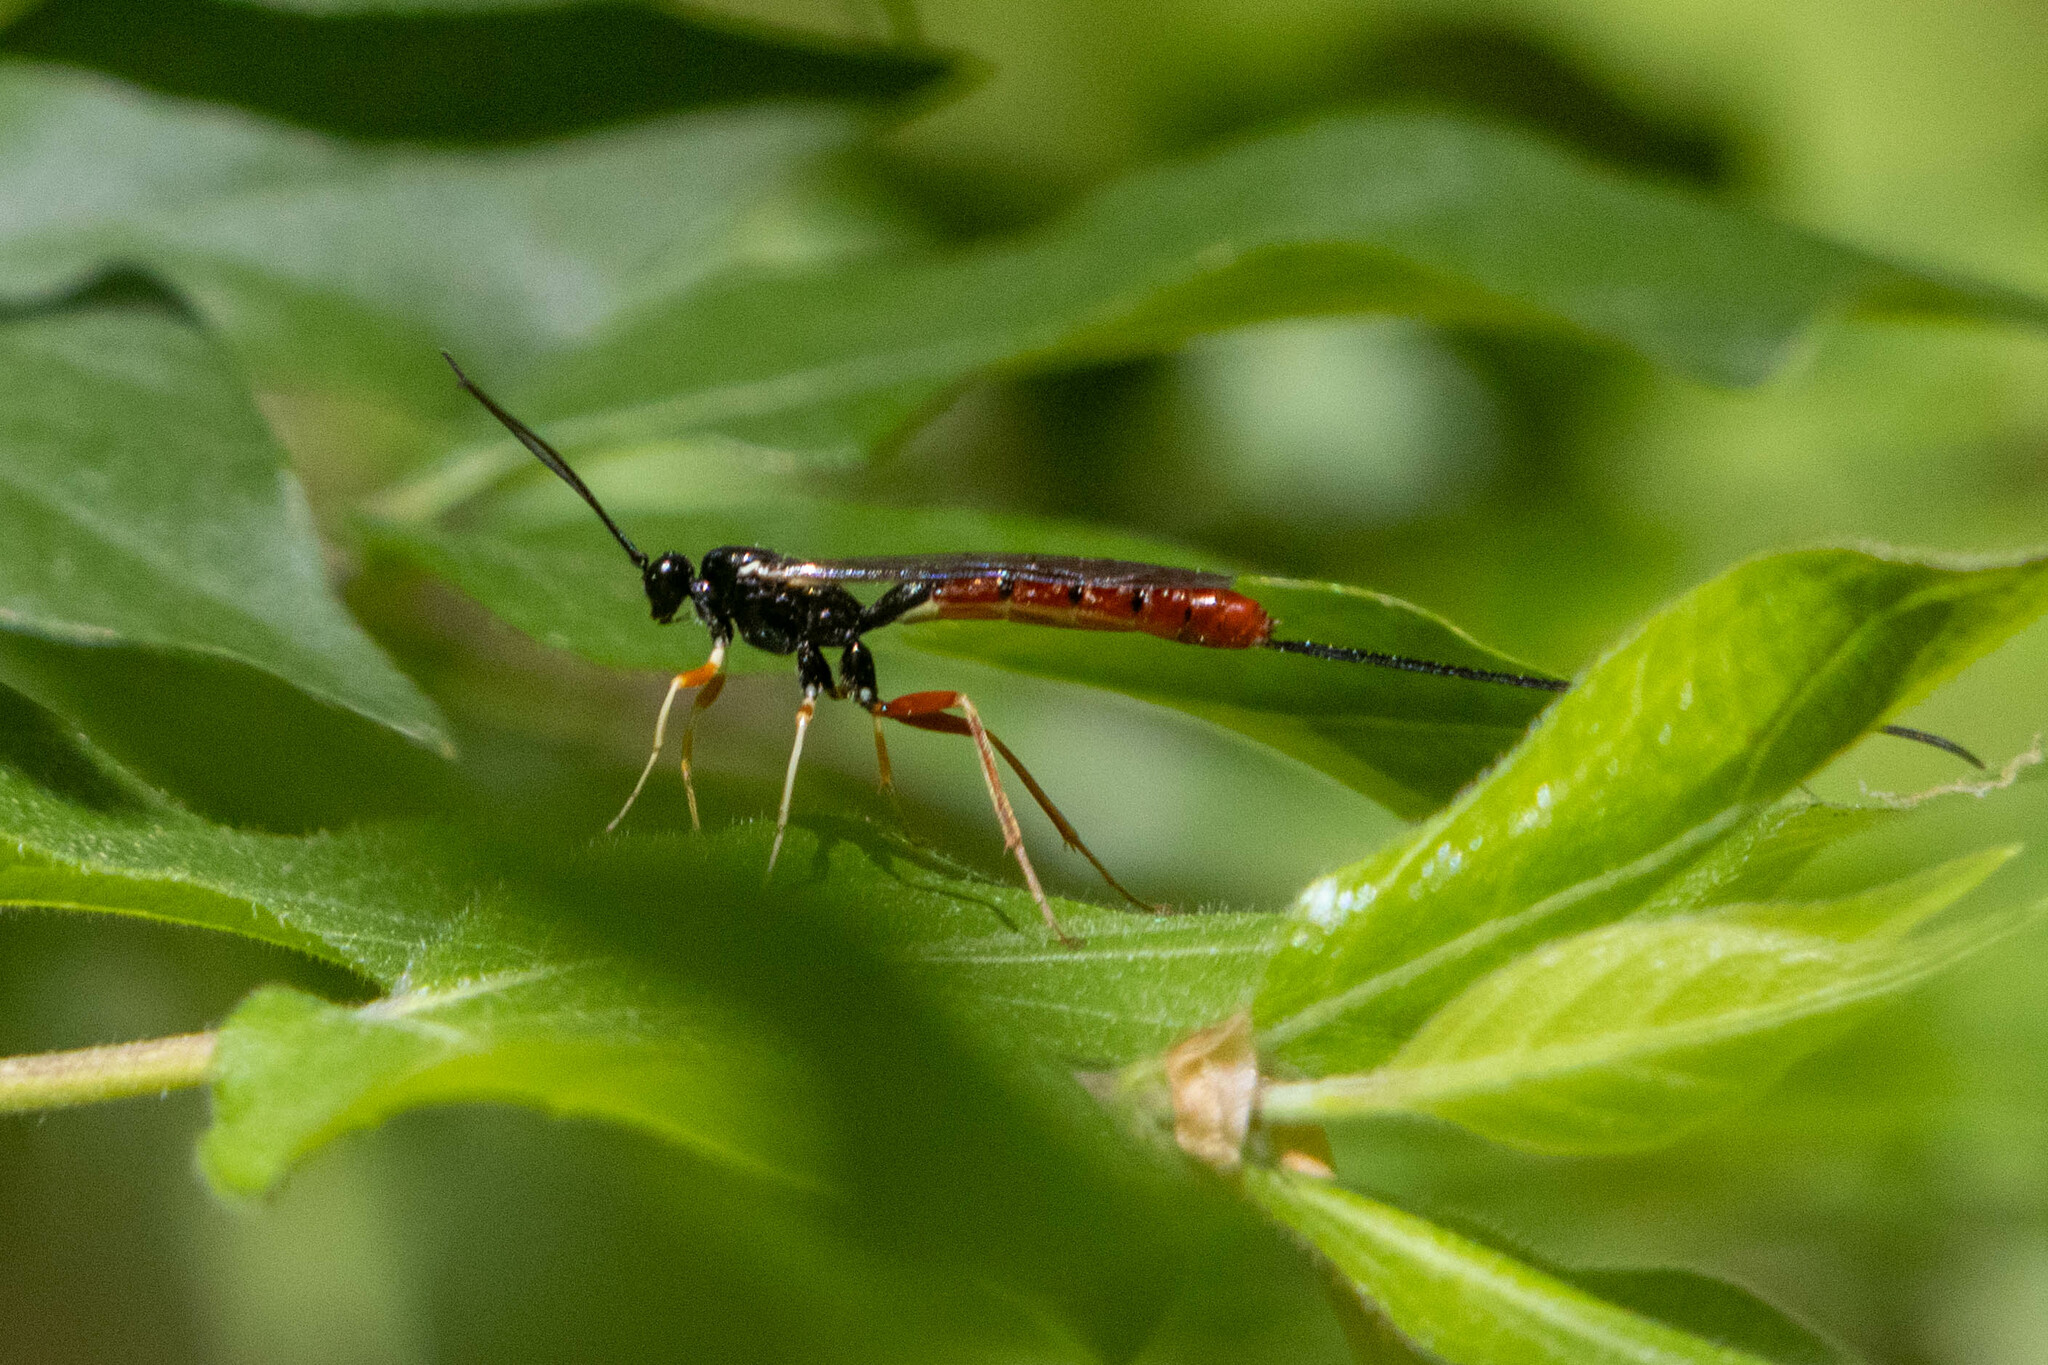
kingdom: Animalia
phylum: Arthropoda
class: Insecta
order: Hymenoptera
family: Ichneumonidae
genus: Dolichomitus
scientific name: Dolichomitus irritator
